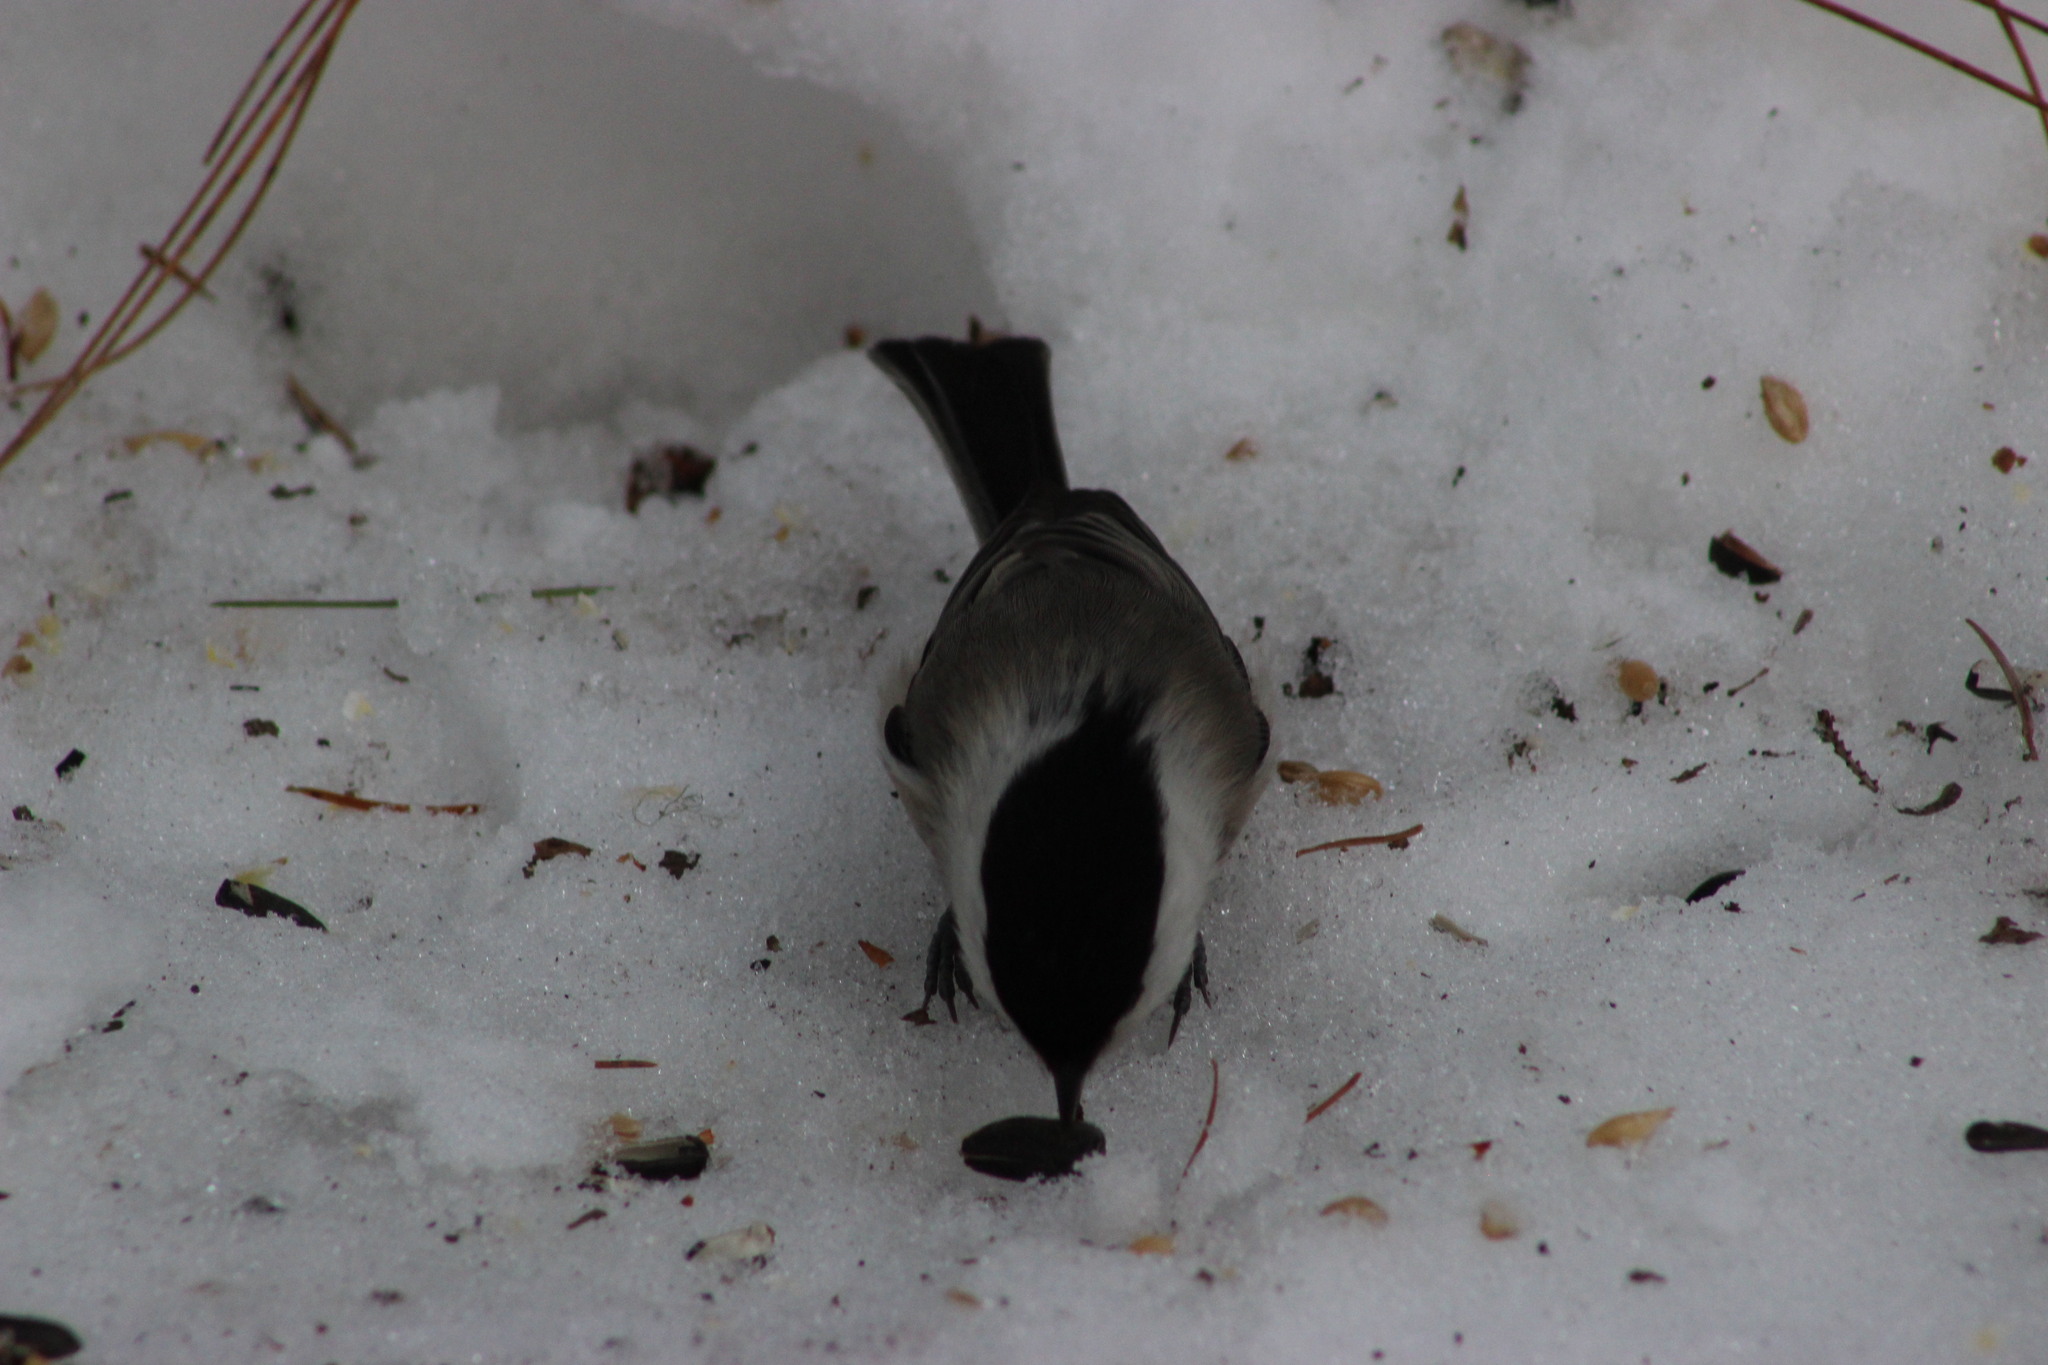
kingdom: Animalia
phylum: Chordata
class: Aves
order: Passeriformes
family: Paridae
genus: Poecile
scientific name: Poecile montanus
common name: Willow tit
